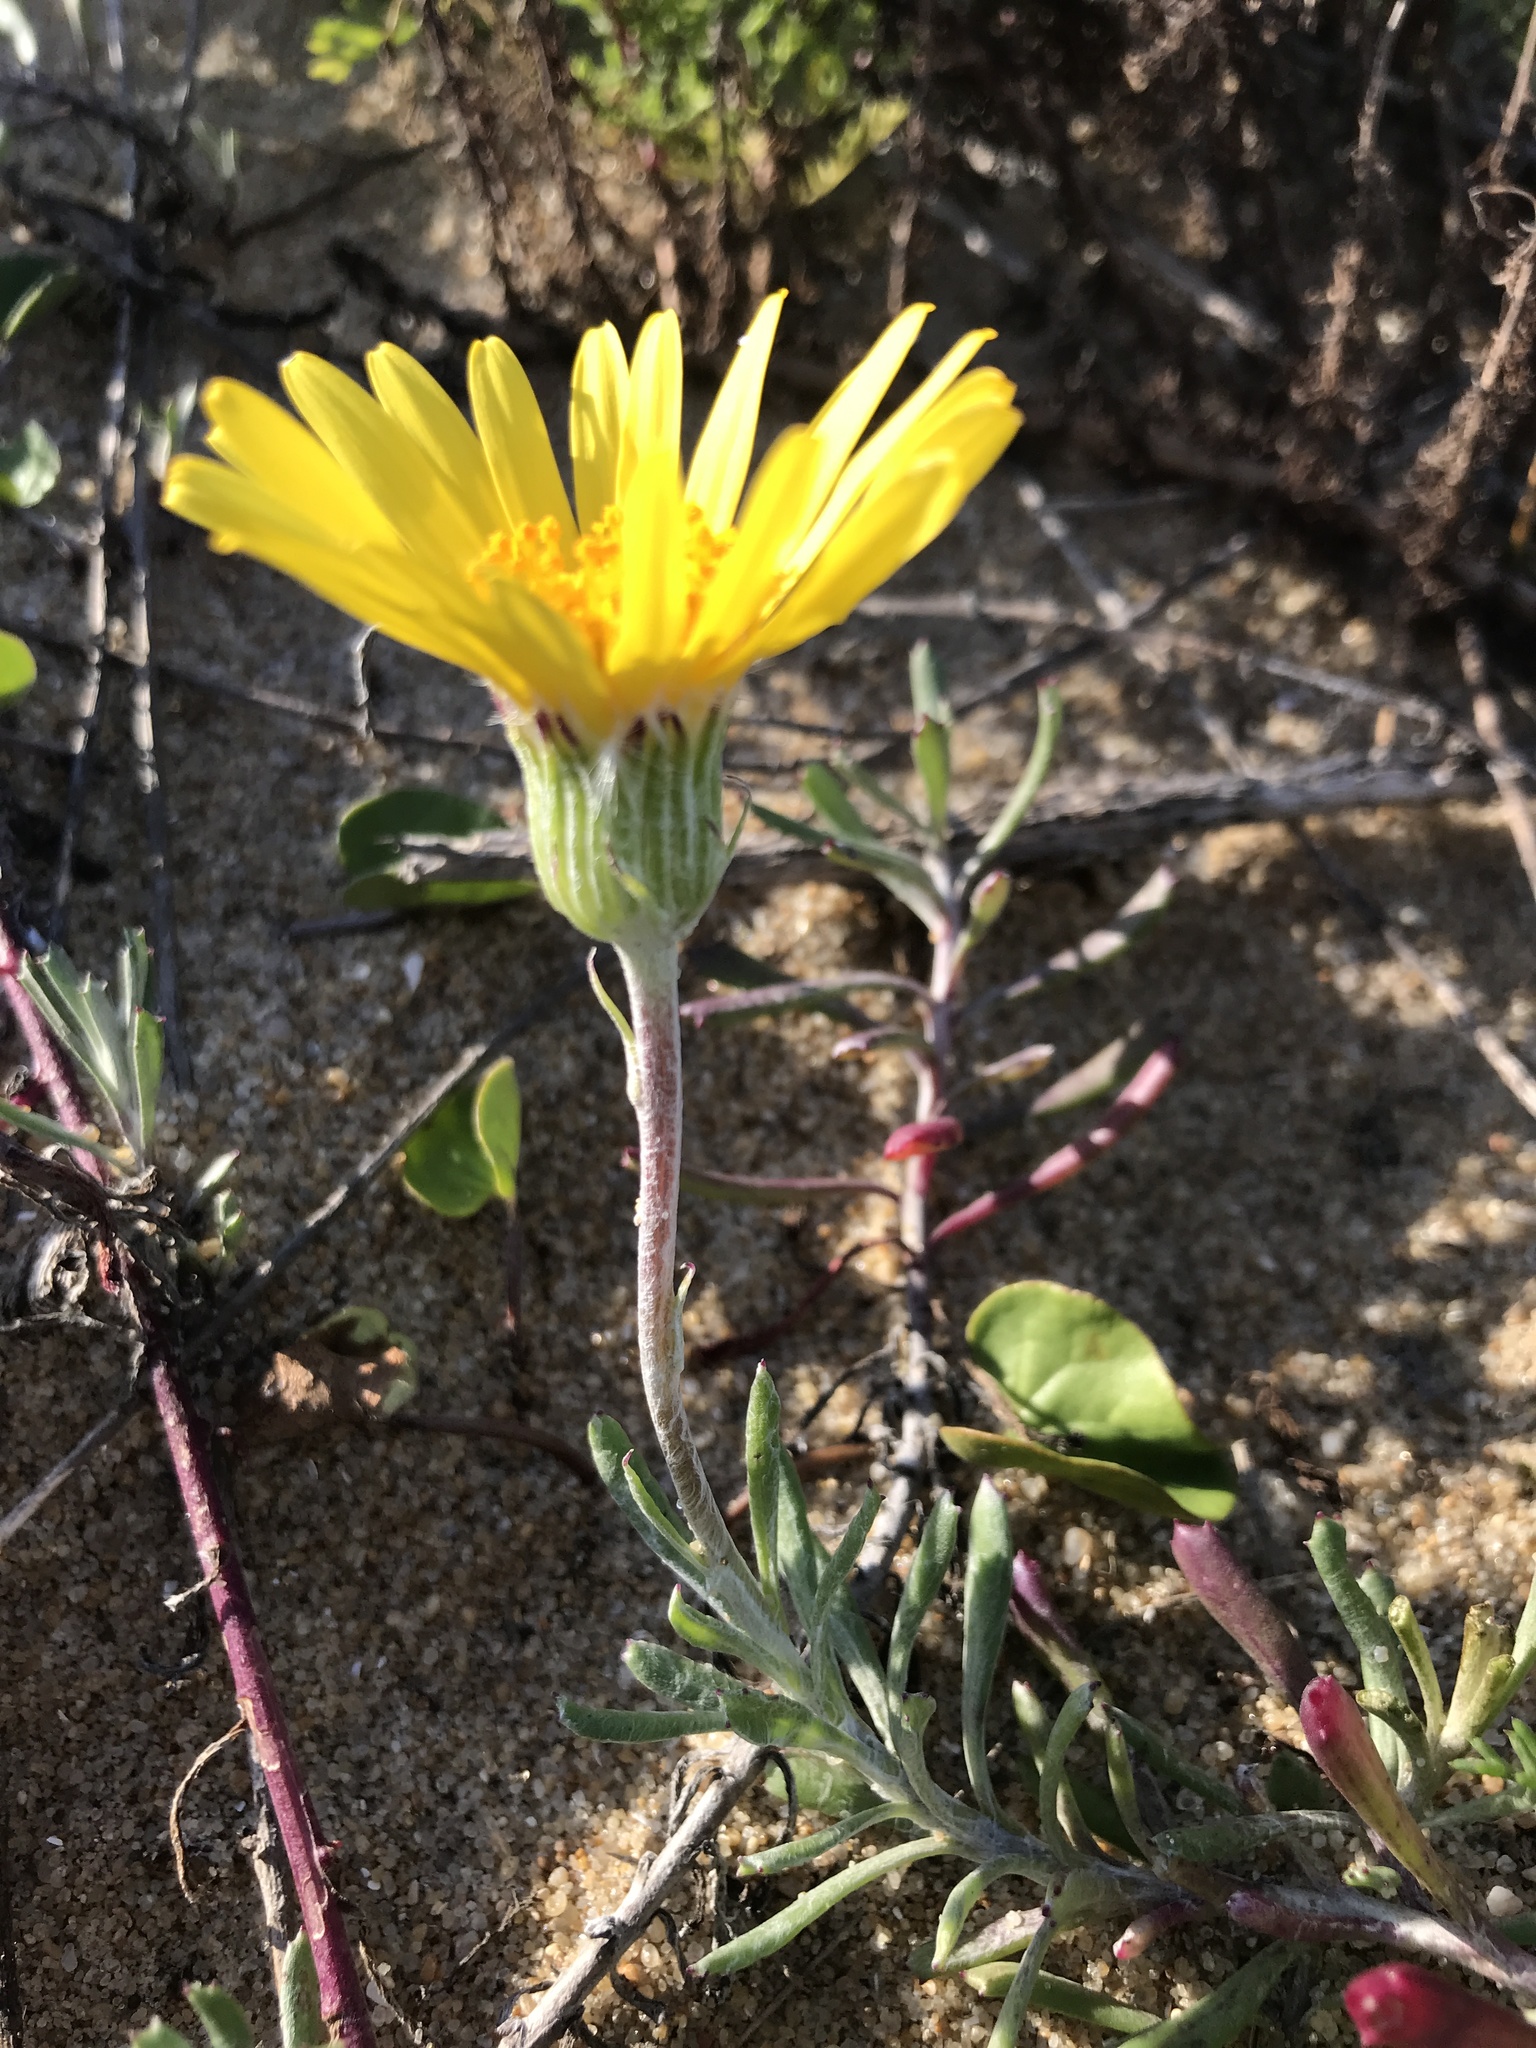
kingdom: Plantae
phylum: Tracheophyta
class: Magnoliopsida
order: Asterales
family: Asteraceae
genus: Senecio
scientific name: Senecio crassiflorus
